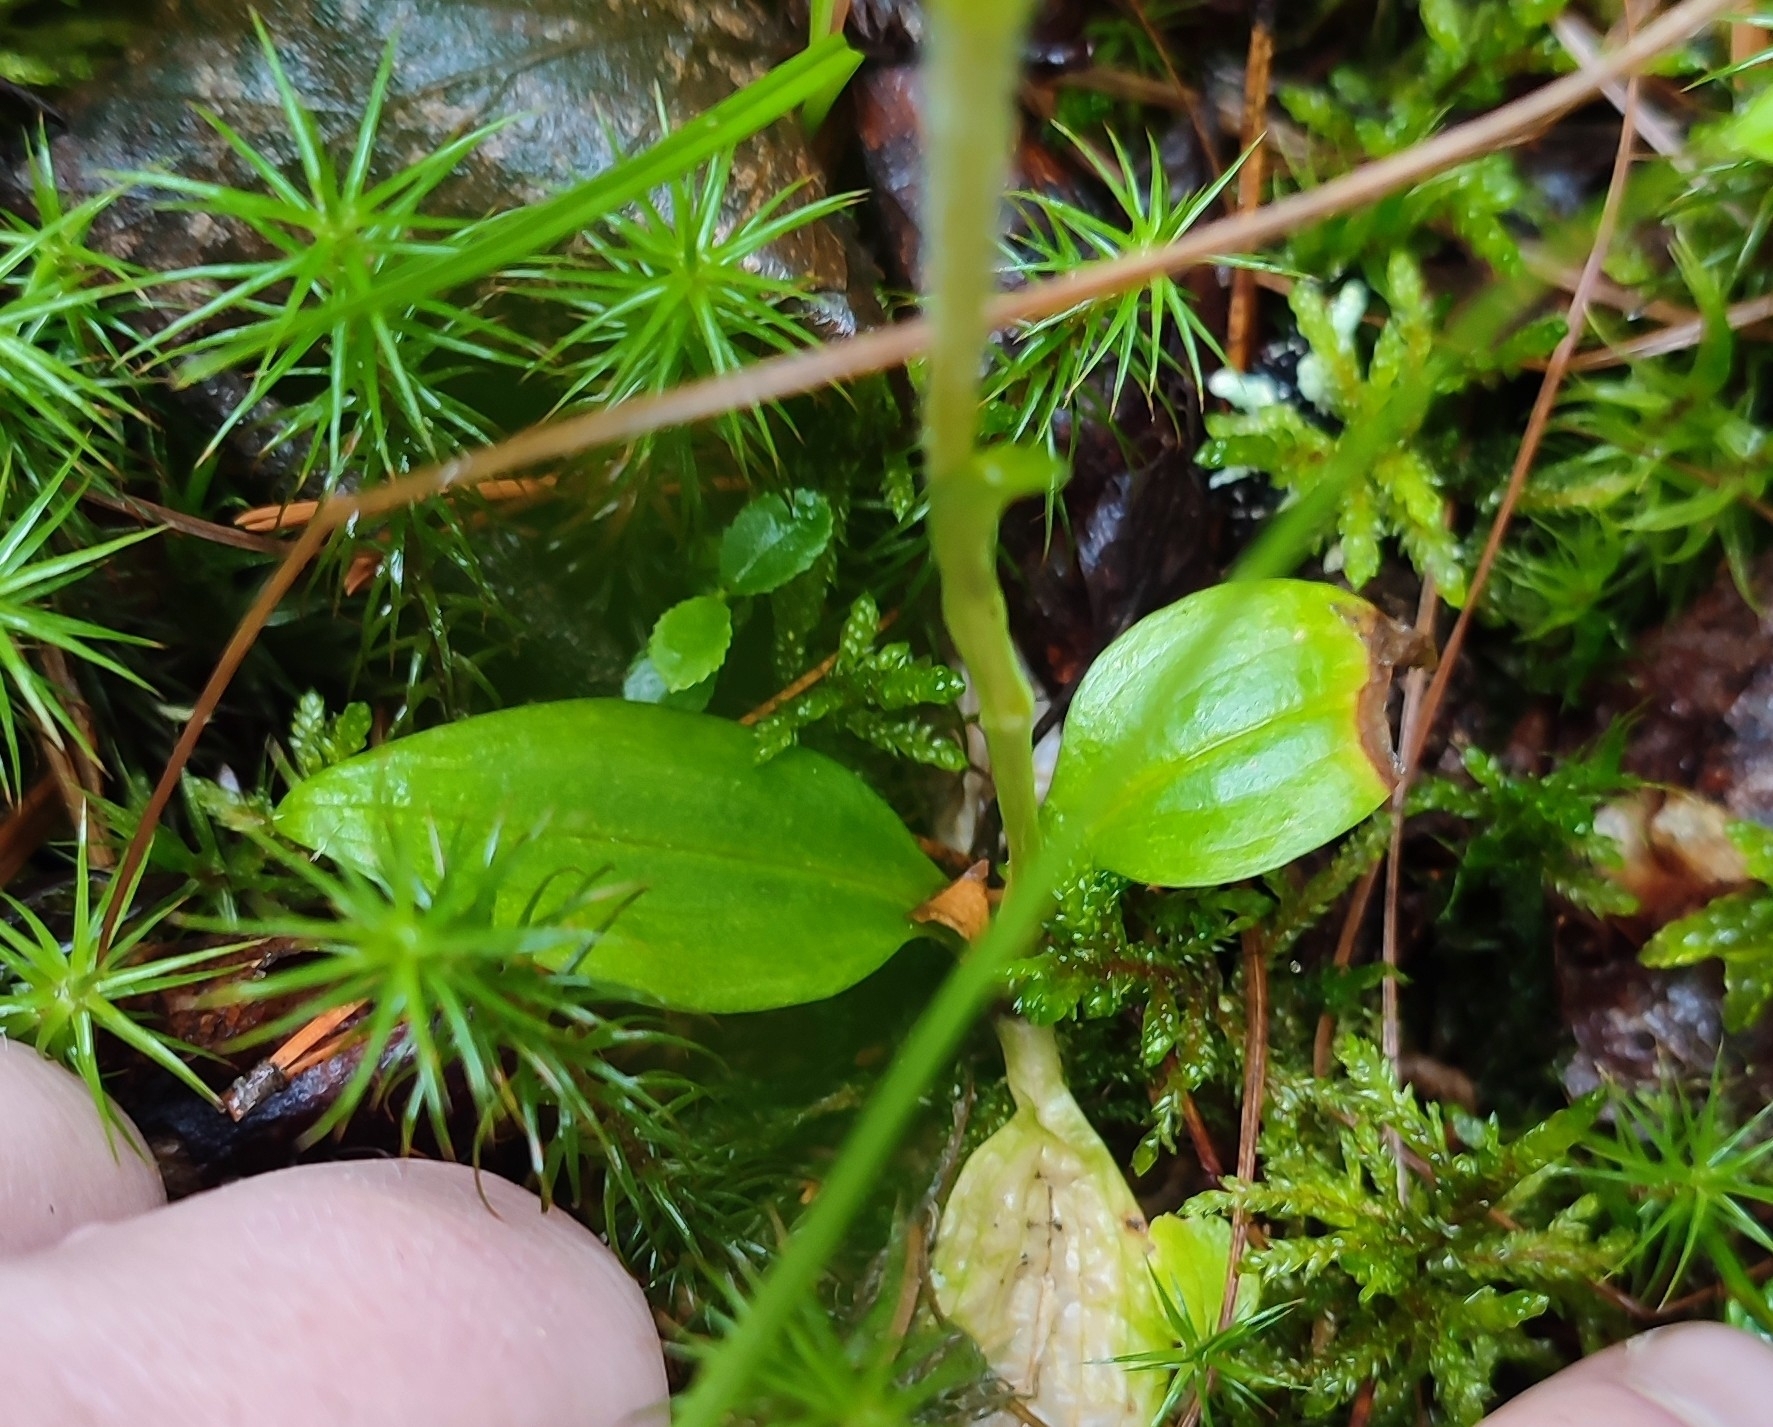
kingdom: Plantae
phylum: Tracheophyta
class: Liliopsida
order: Asparagales
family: Orchidaceae
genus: Goodyera
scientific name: Goodyera repens
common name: Creeping lady's-tresses
